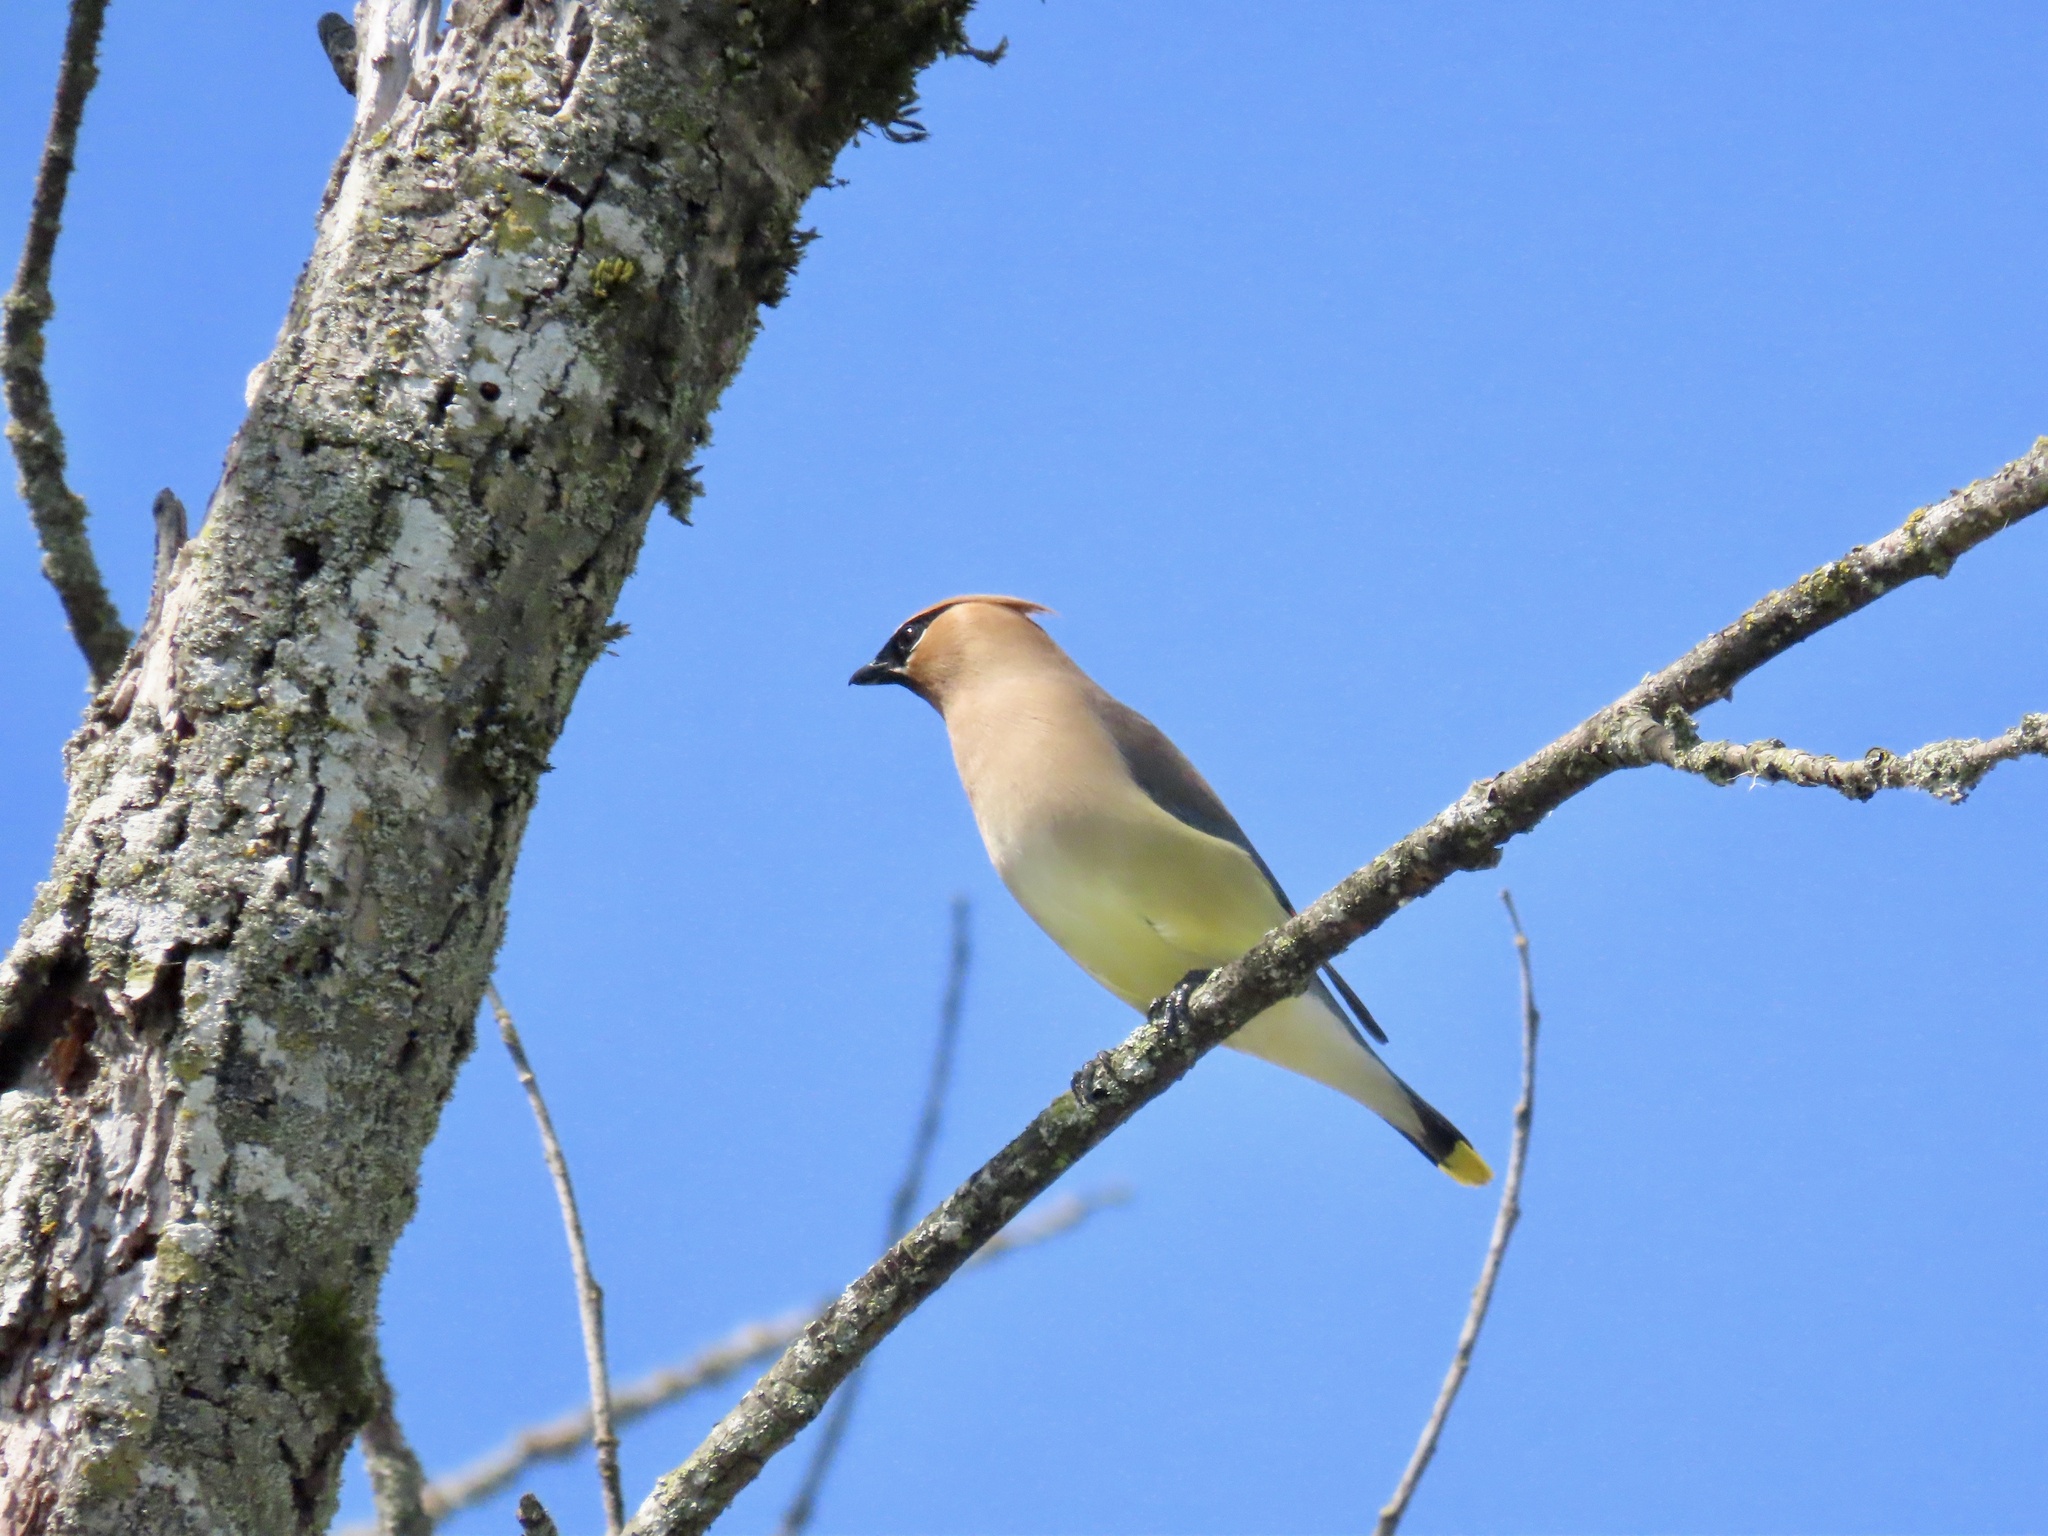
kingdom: Animalia
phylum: Chordata
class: Aves
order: Passeriformes
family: Bombycillidae
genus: Bombycilla
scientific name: Bombycilla cedrorum
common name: Cedar waxwing
